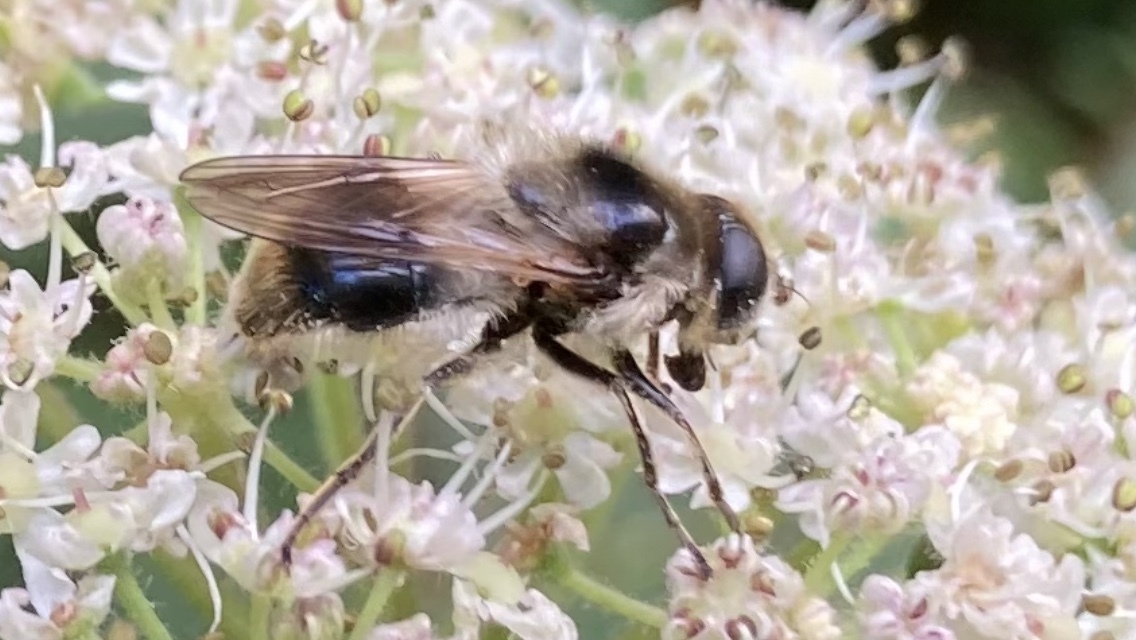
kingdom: Animalia
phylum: Arthropoda
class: Insecta
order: Diptera
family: Syrphidae
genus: Cheilosia
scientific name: Cheilosia illustrata
